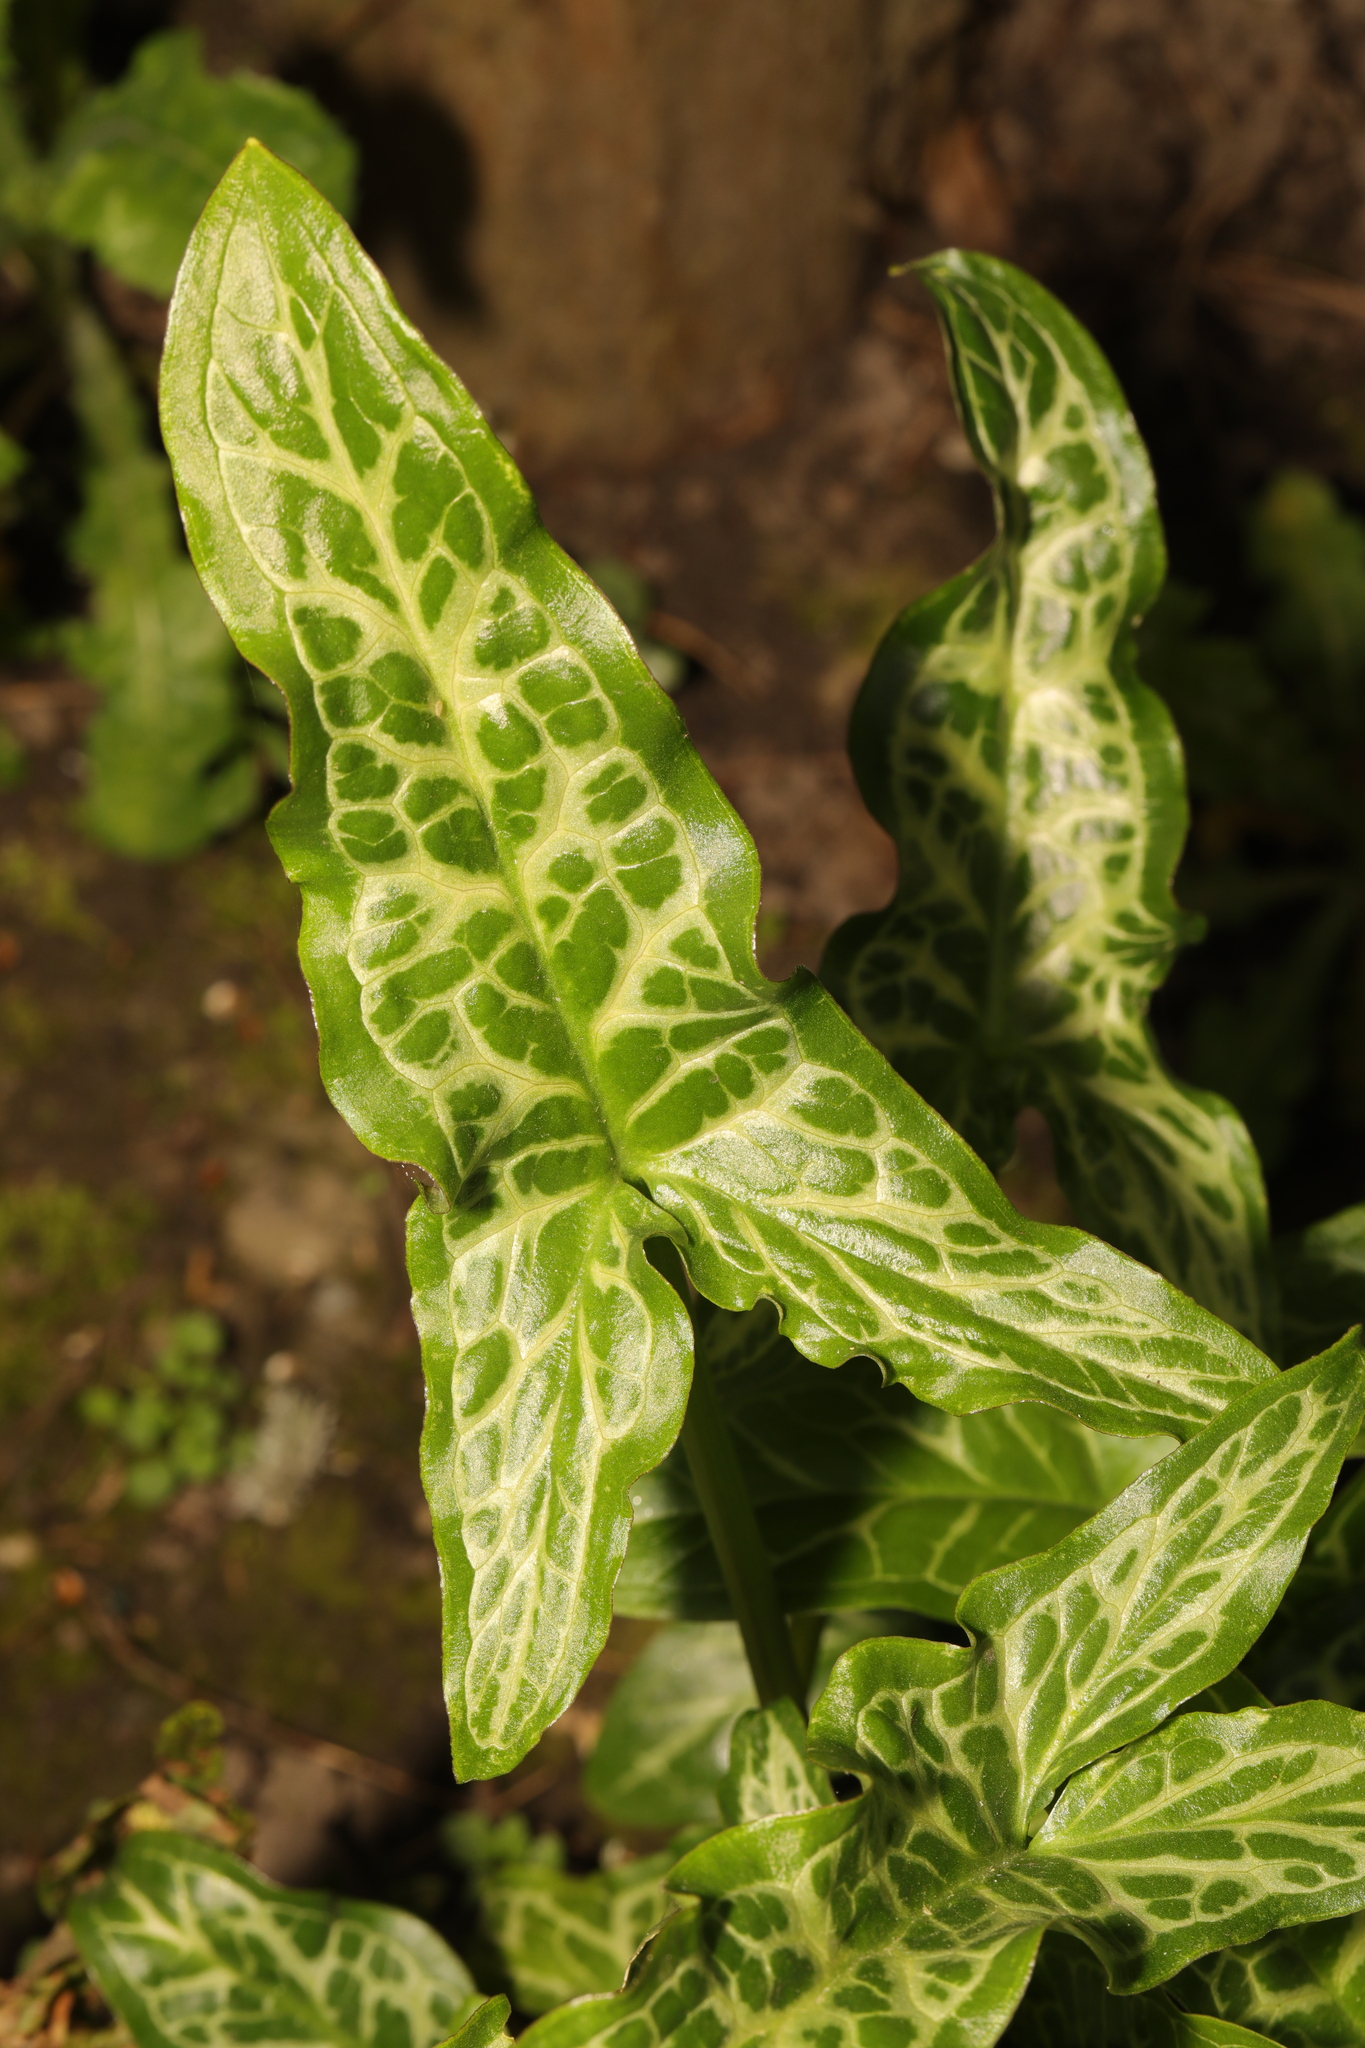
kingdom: Plantae
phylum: Tracheophyta
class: Liliopsida
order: Alismatales
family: Araceae
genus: Arum
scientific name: Arum italicum
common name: Italian lords-and-ladies
